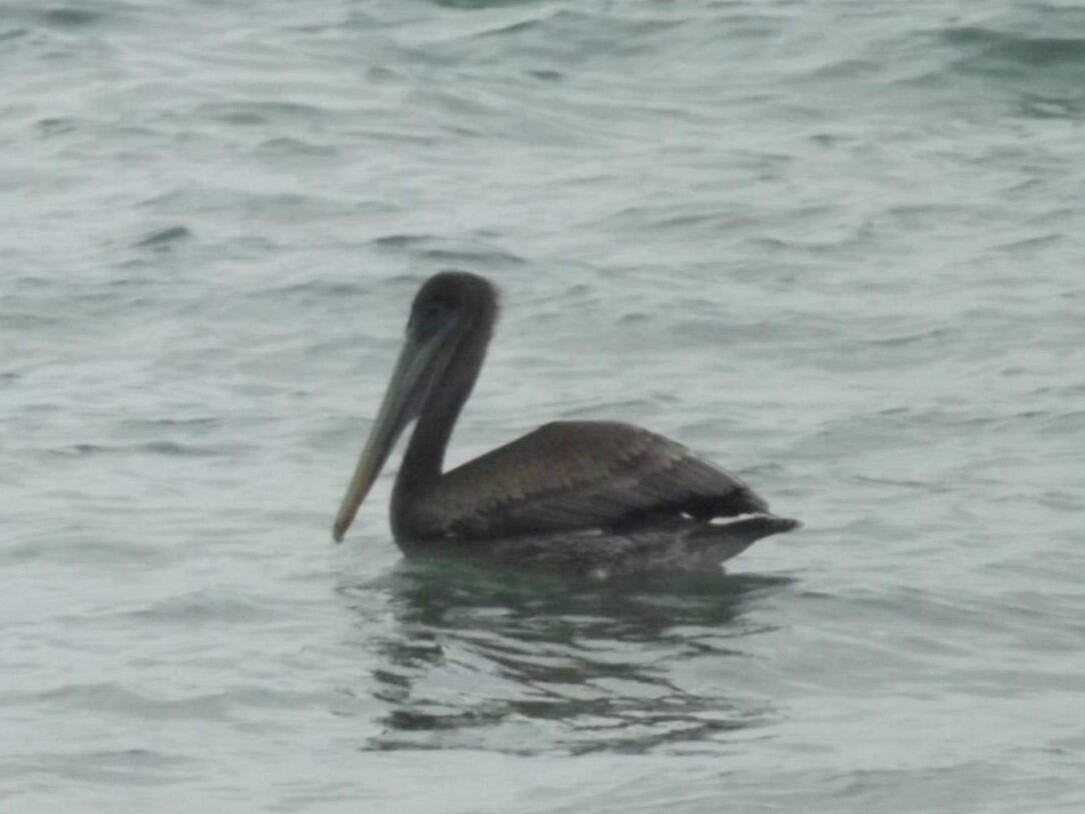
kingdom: Animalia
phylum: Chordata
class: Aves
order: Pelecaniformes
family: Pelecanidae
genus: Pelecanus
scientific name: Pelecanus occidentalis
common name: Brown pelican
